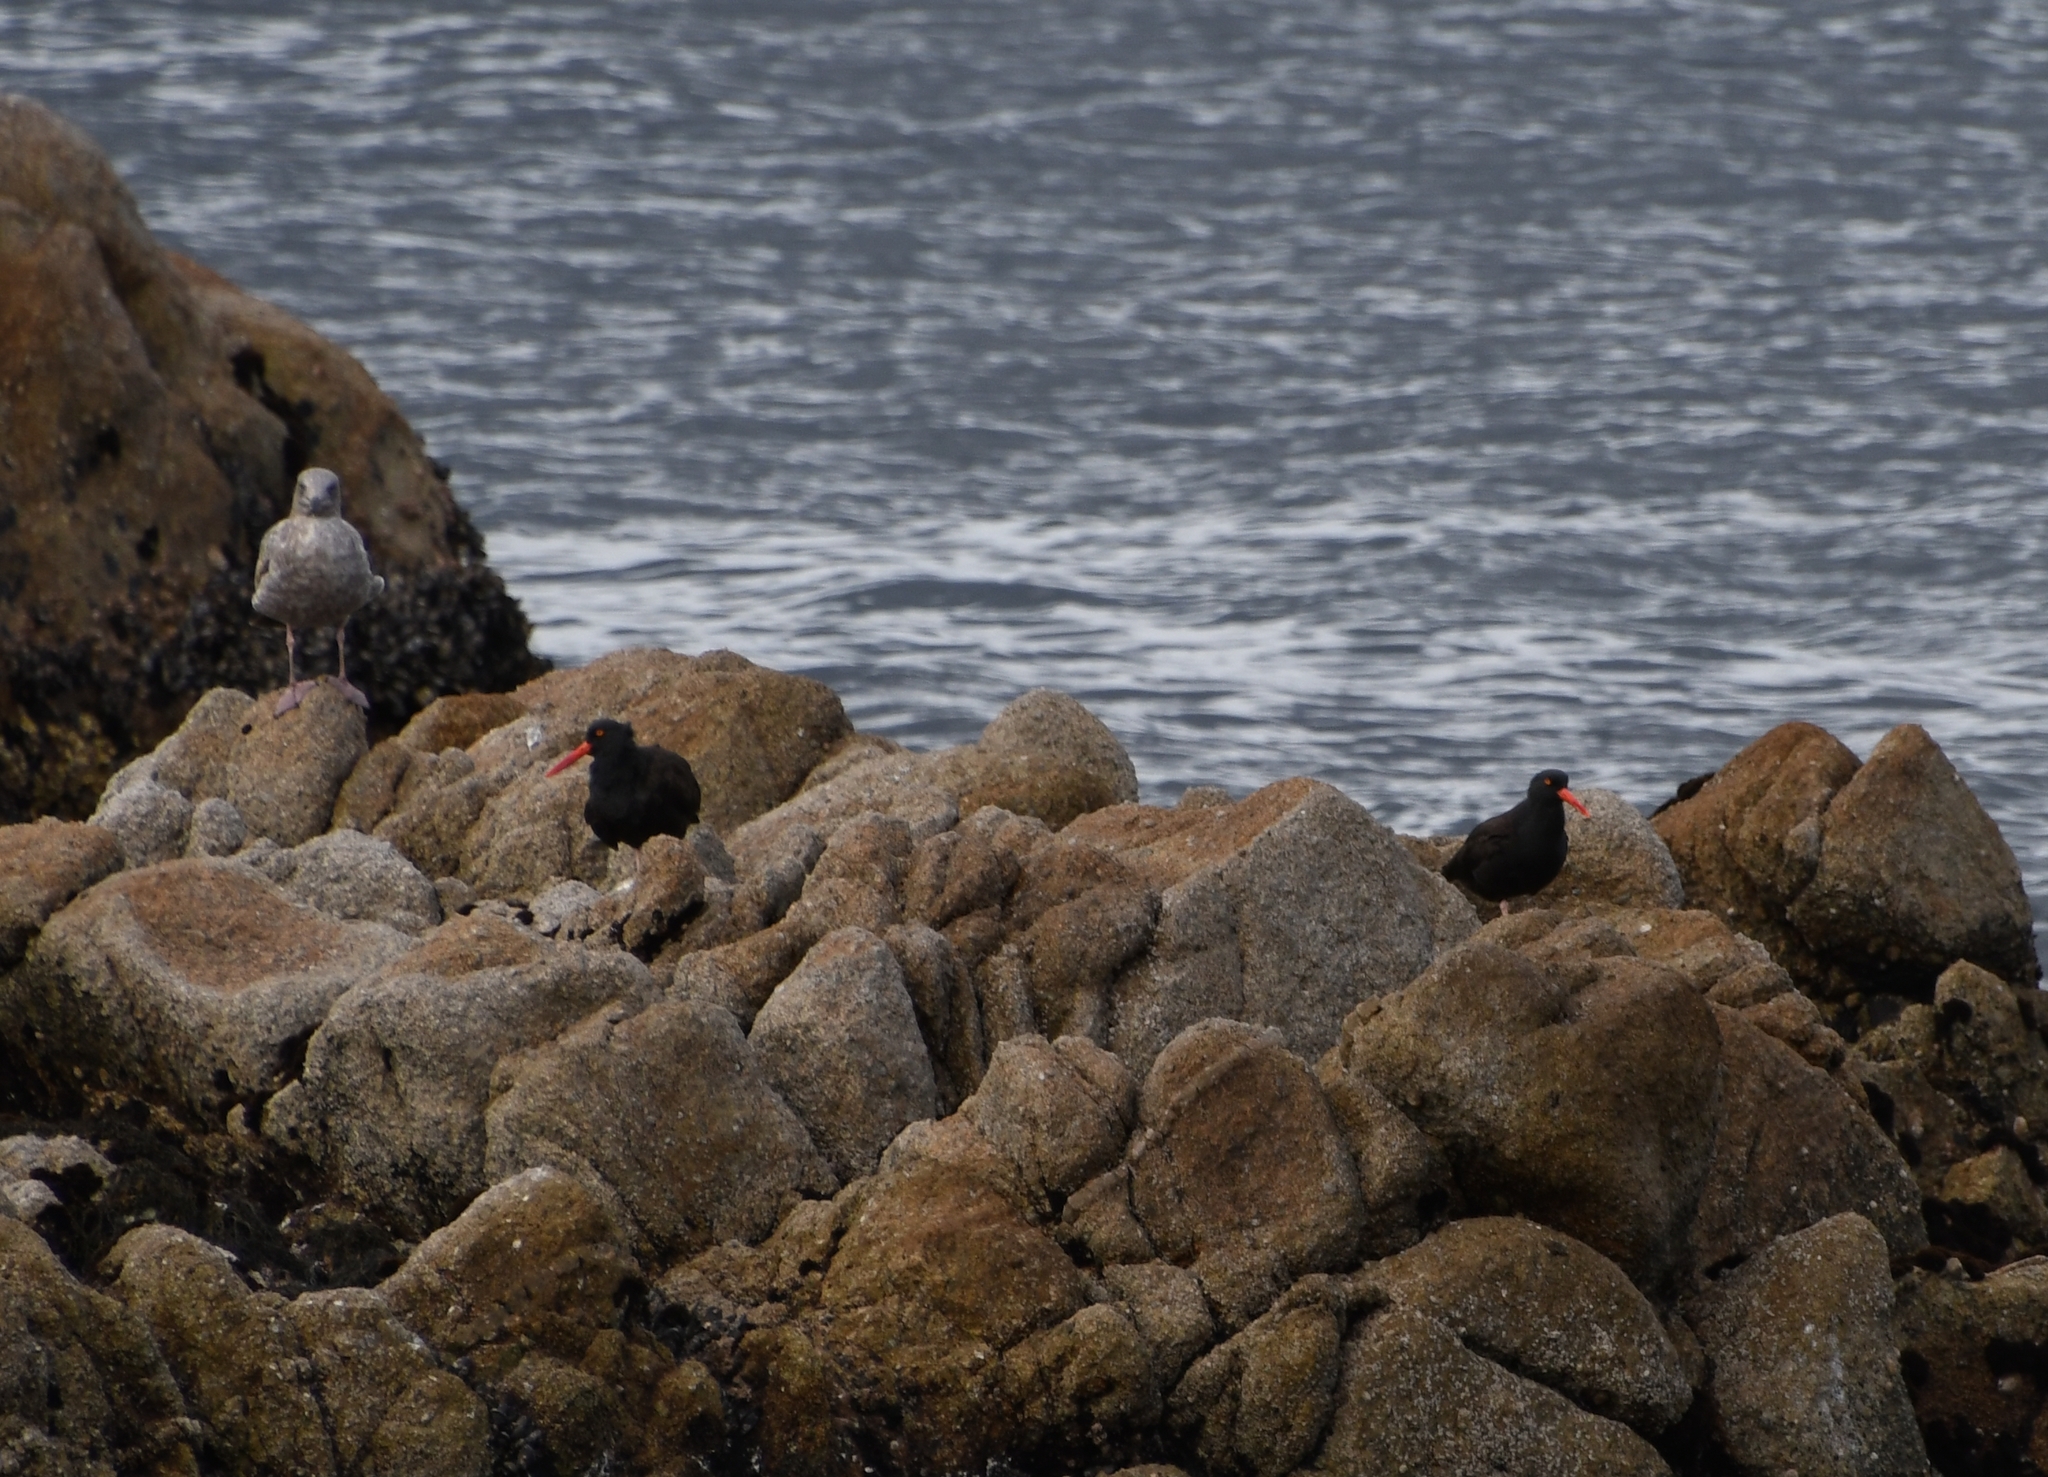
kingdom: Animalia
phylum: Chordata
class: Aves
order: Charadriiformes
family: Haematopodidae
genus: Haematopus
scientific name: Haematopus bachmani
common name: Black oystercatcher
